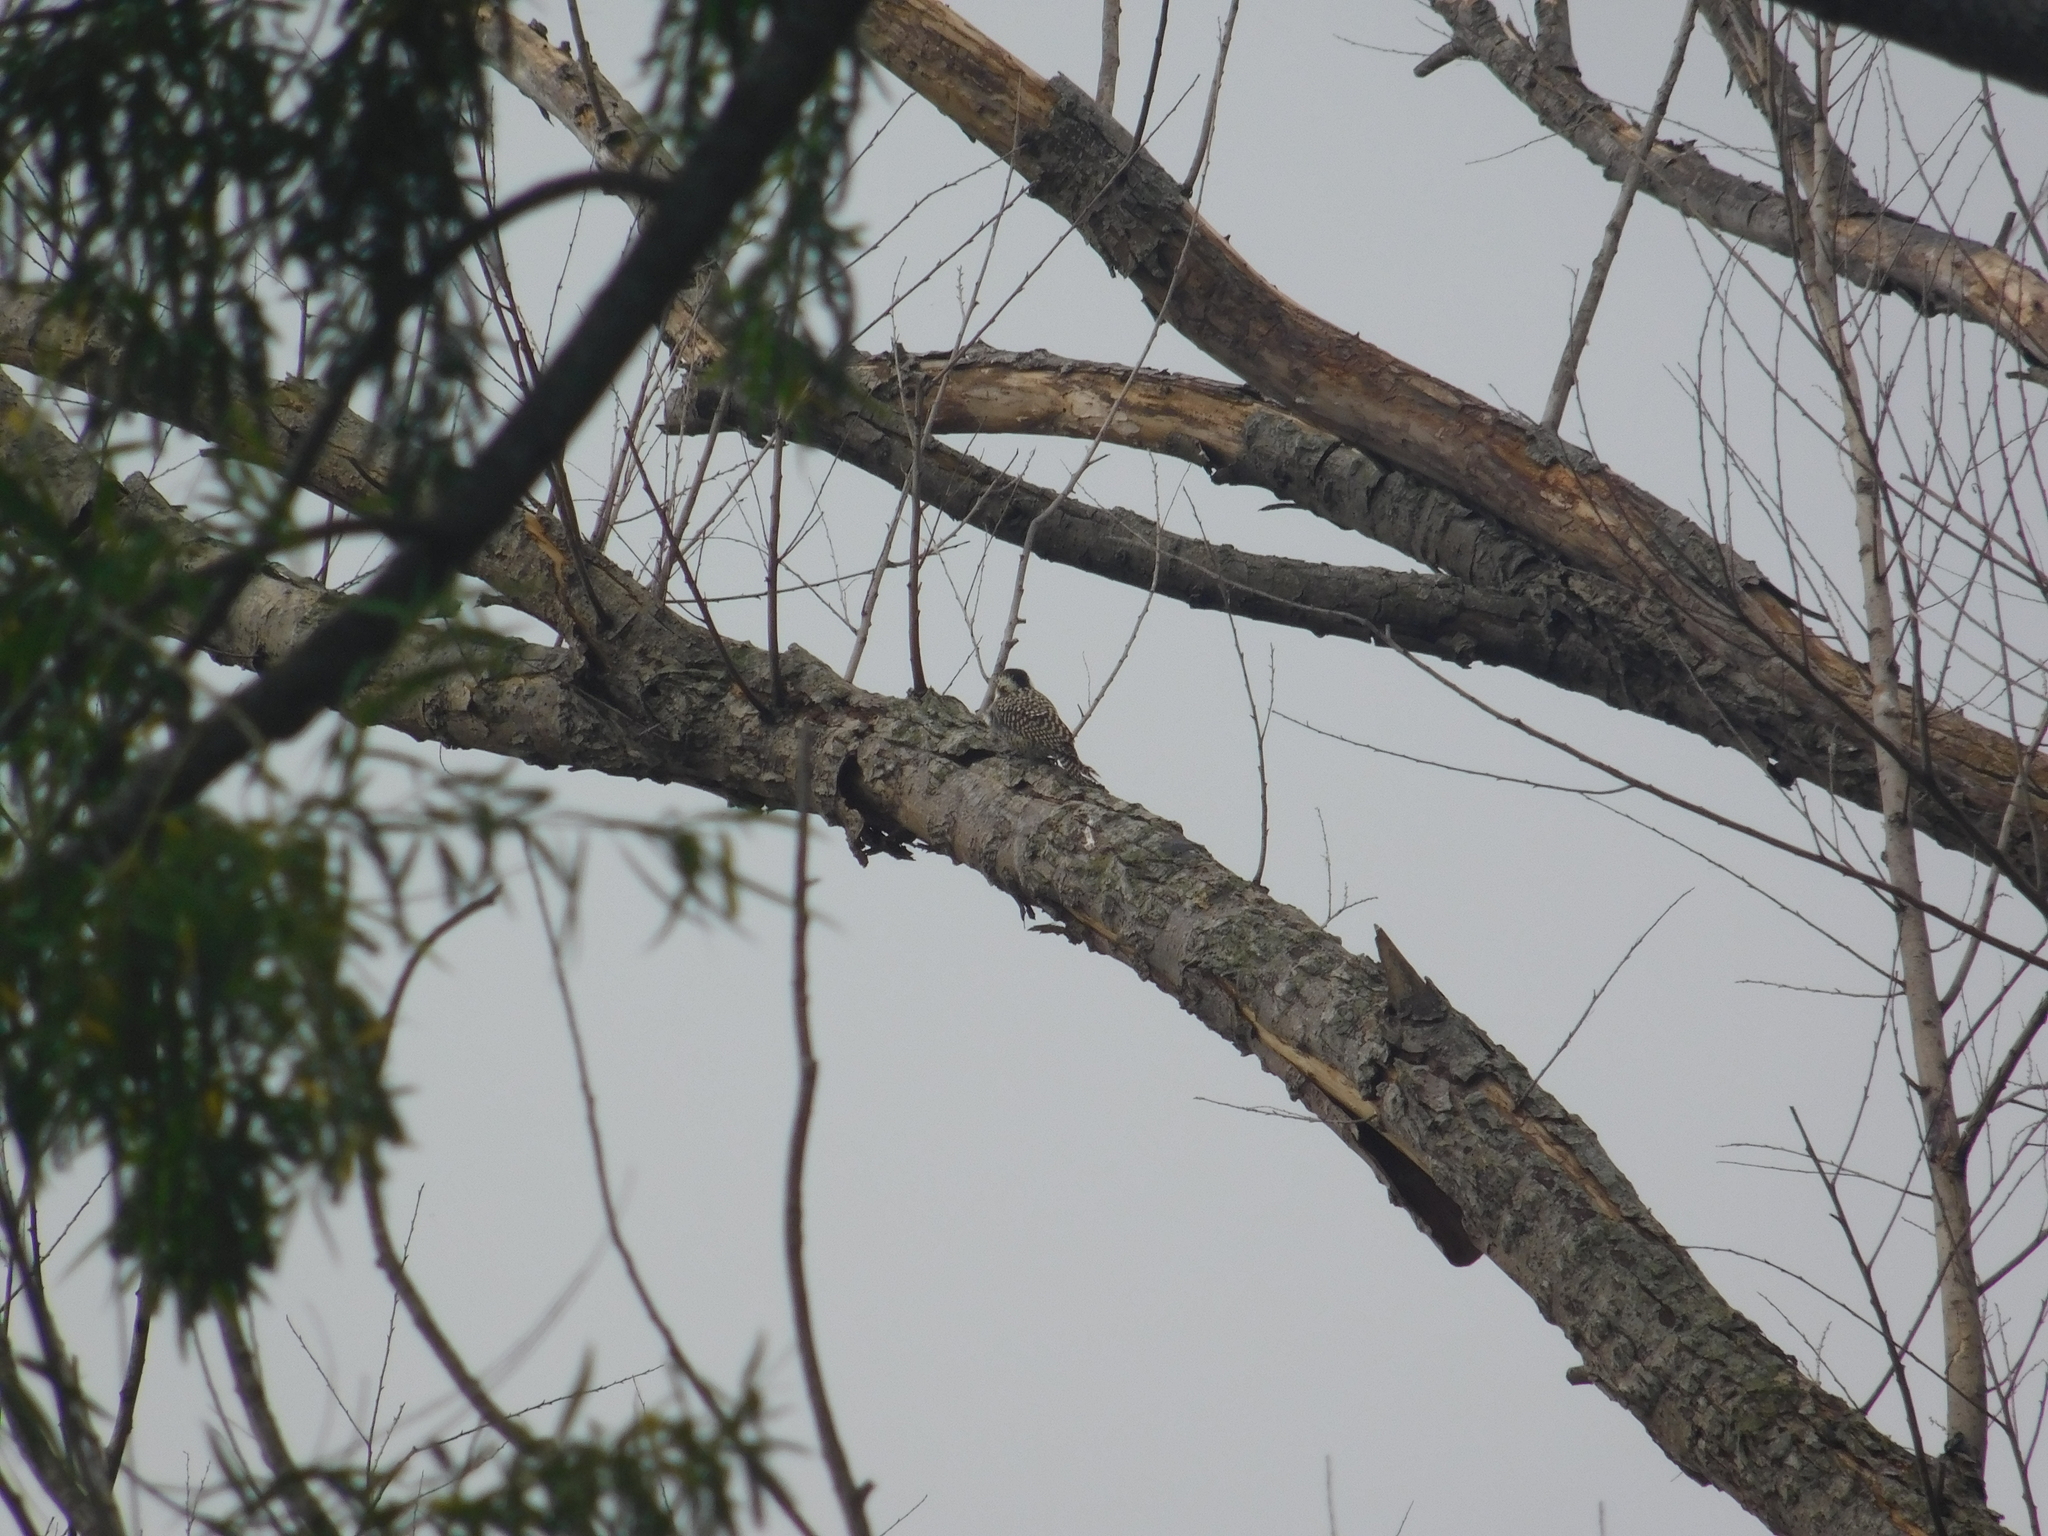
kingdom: Animalia
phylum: Chordata
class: Aves
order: Piciformes
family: Picidae
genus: Veniliornis
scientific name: Veniliornis mixtus
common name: Checkered woodpecker
